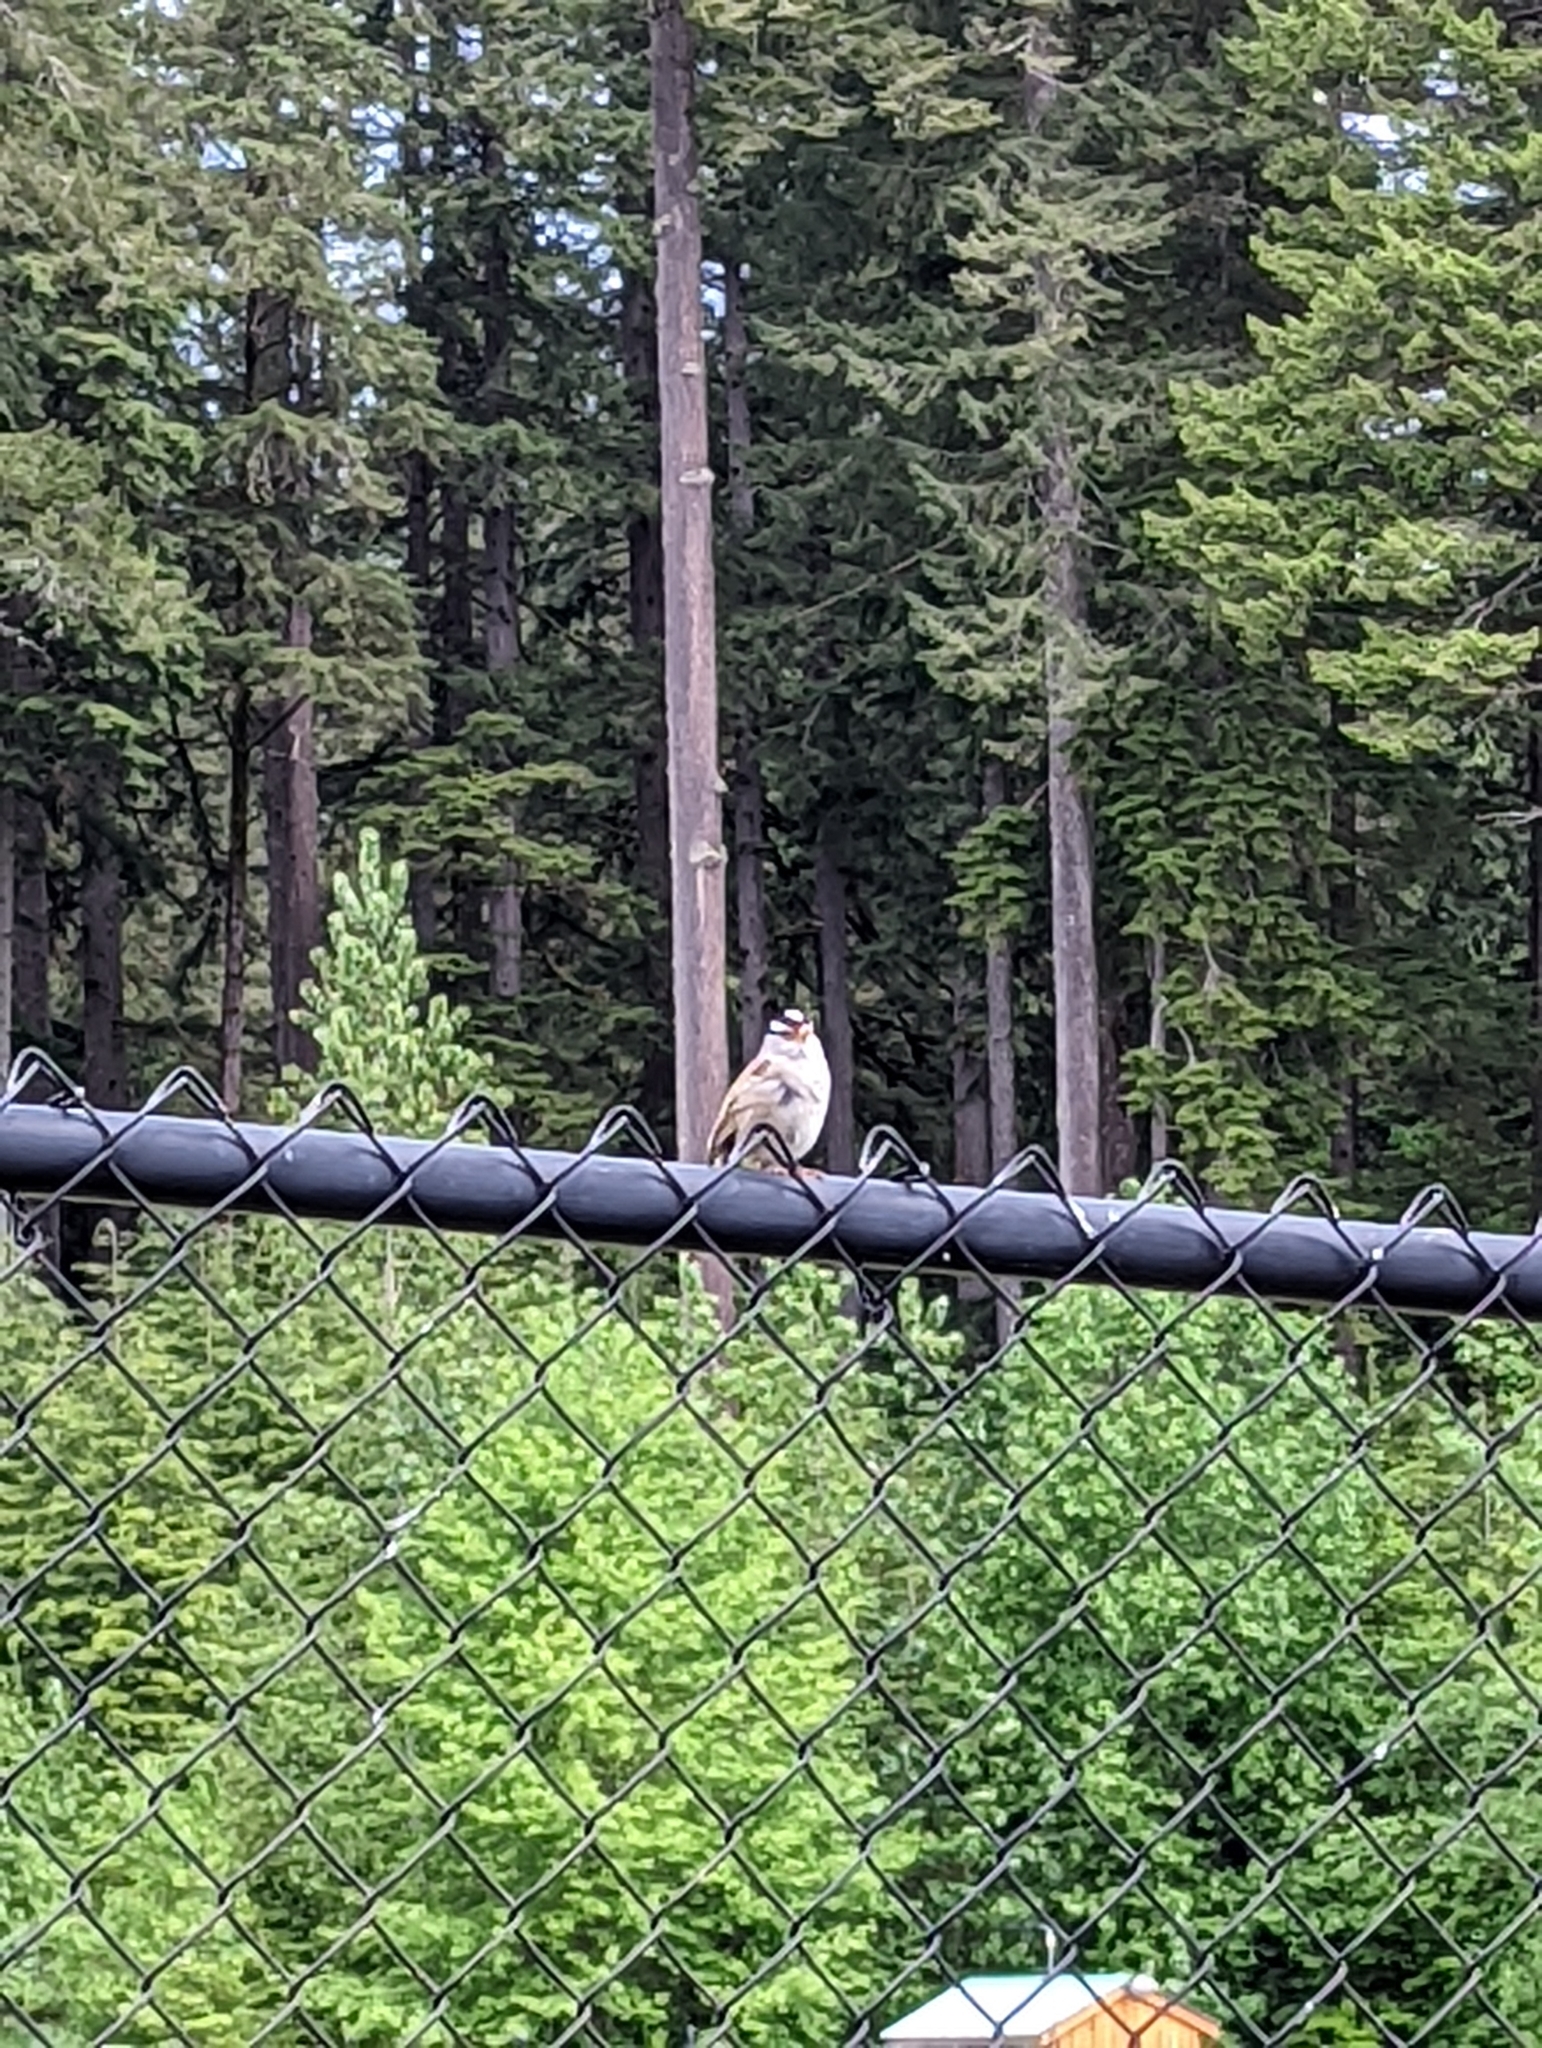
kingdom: Animalia
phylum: Chordata
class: Aves
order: Passeriformes
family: Passerellidae
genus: Zonotrichia
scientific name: Zonotrichia leucophrys
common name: White-crowned sparrow
